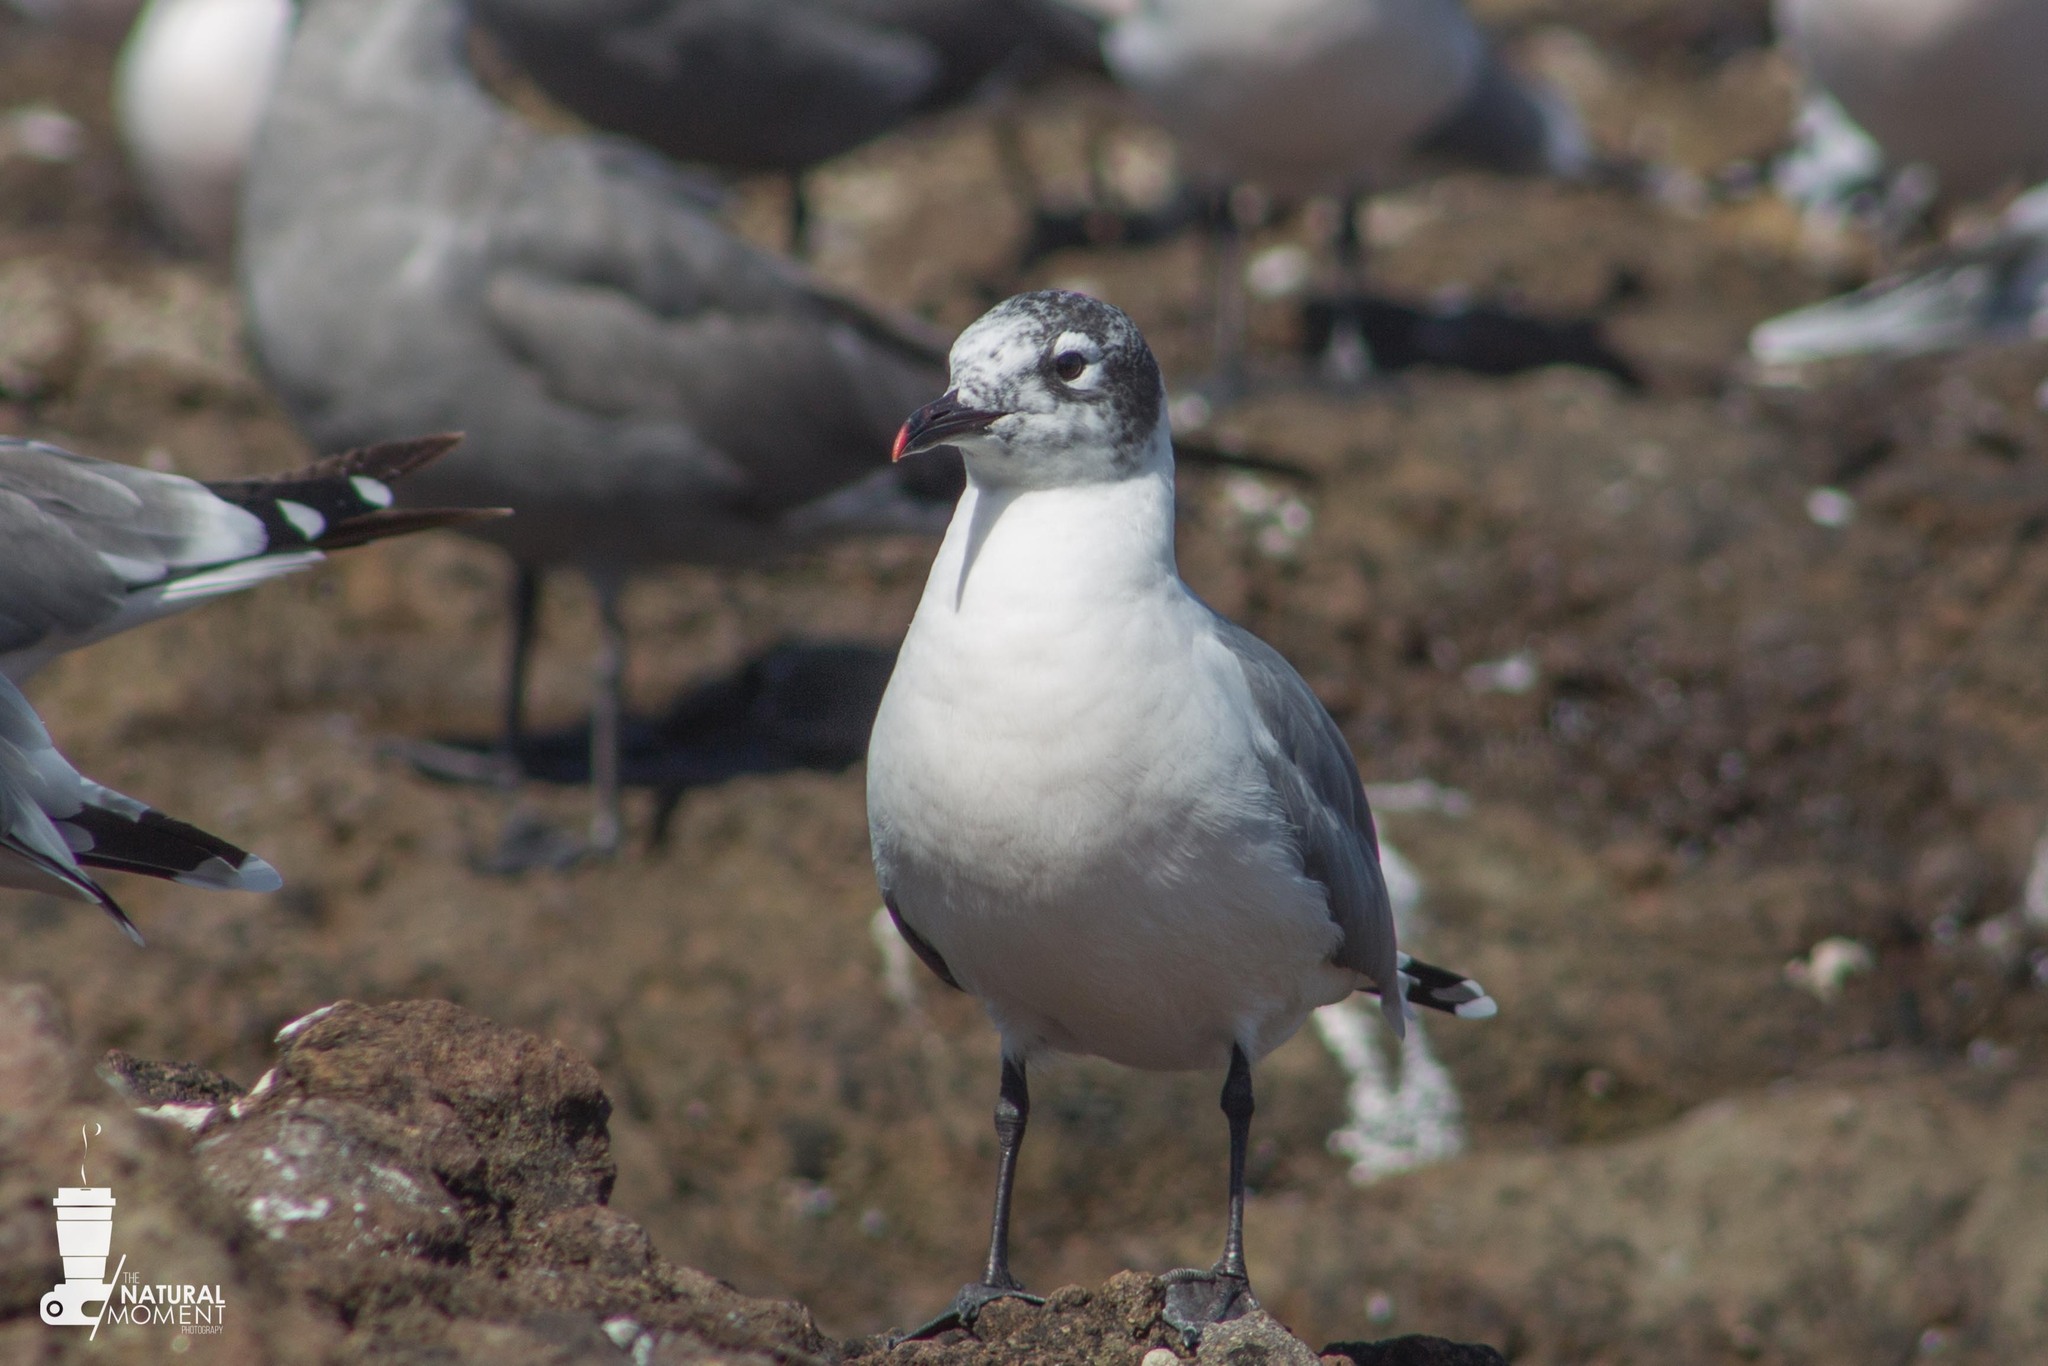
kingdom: Animalia
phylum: Chordata
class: Aves
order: Charadriiformes
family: Laridae
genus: Leucophaeus
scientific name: Leucophaeus pipixcan
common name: Franklin's gull
